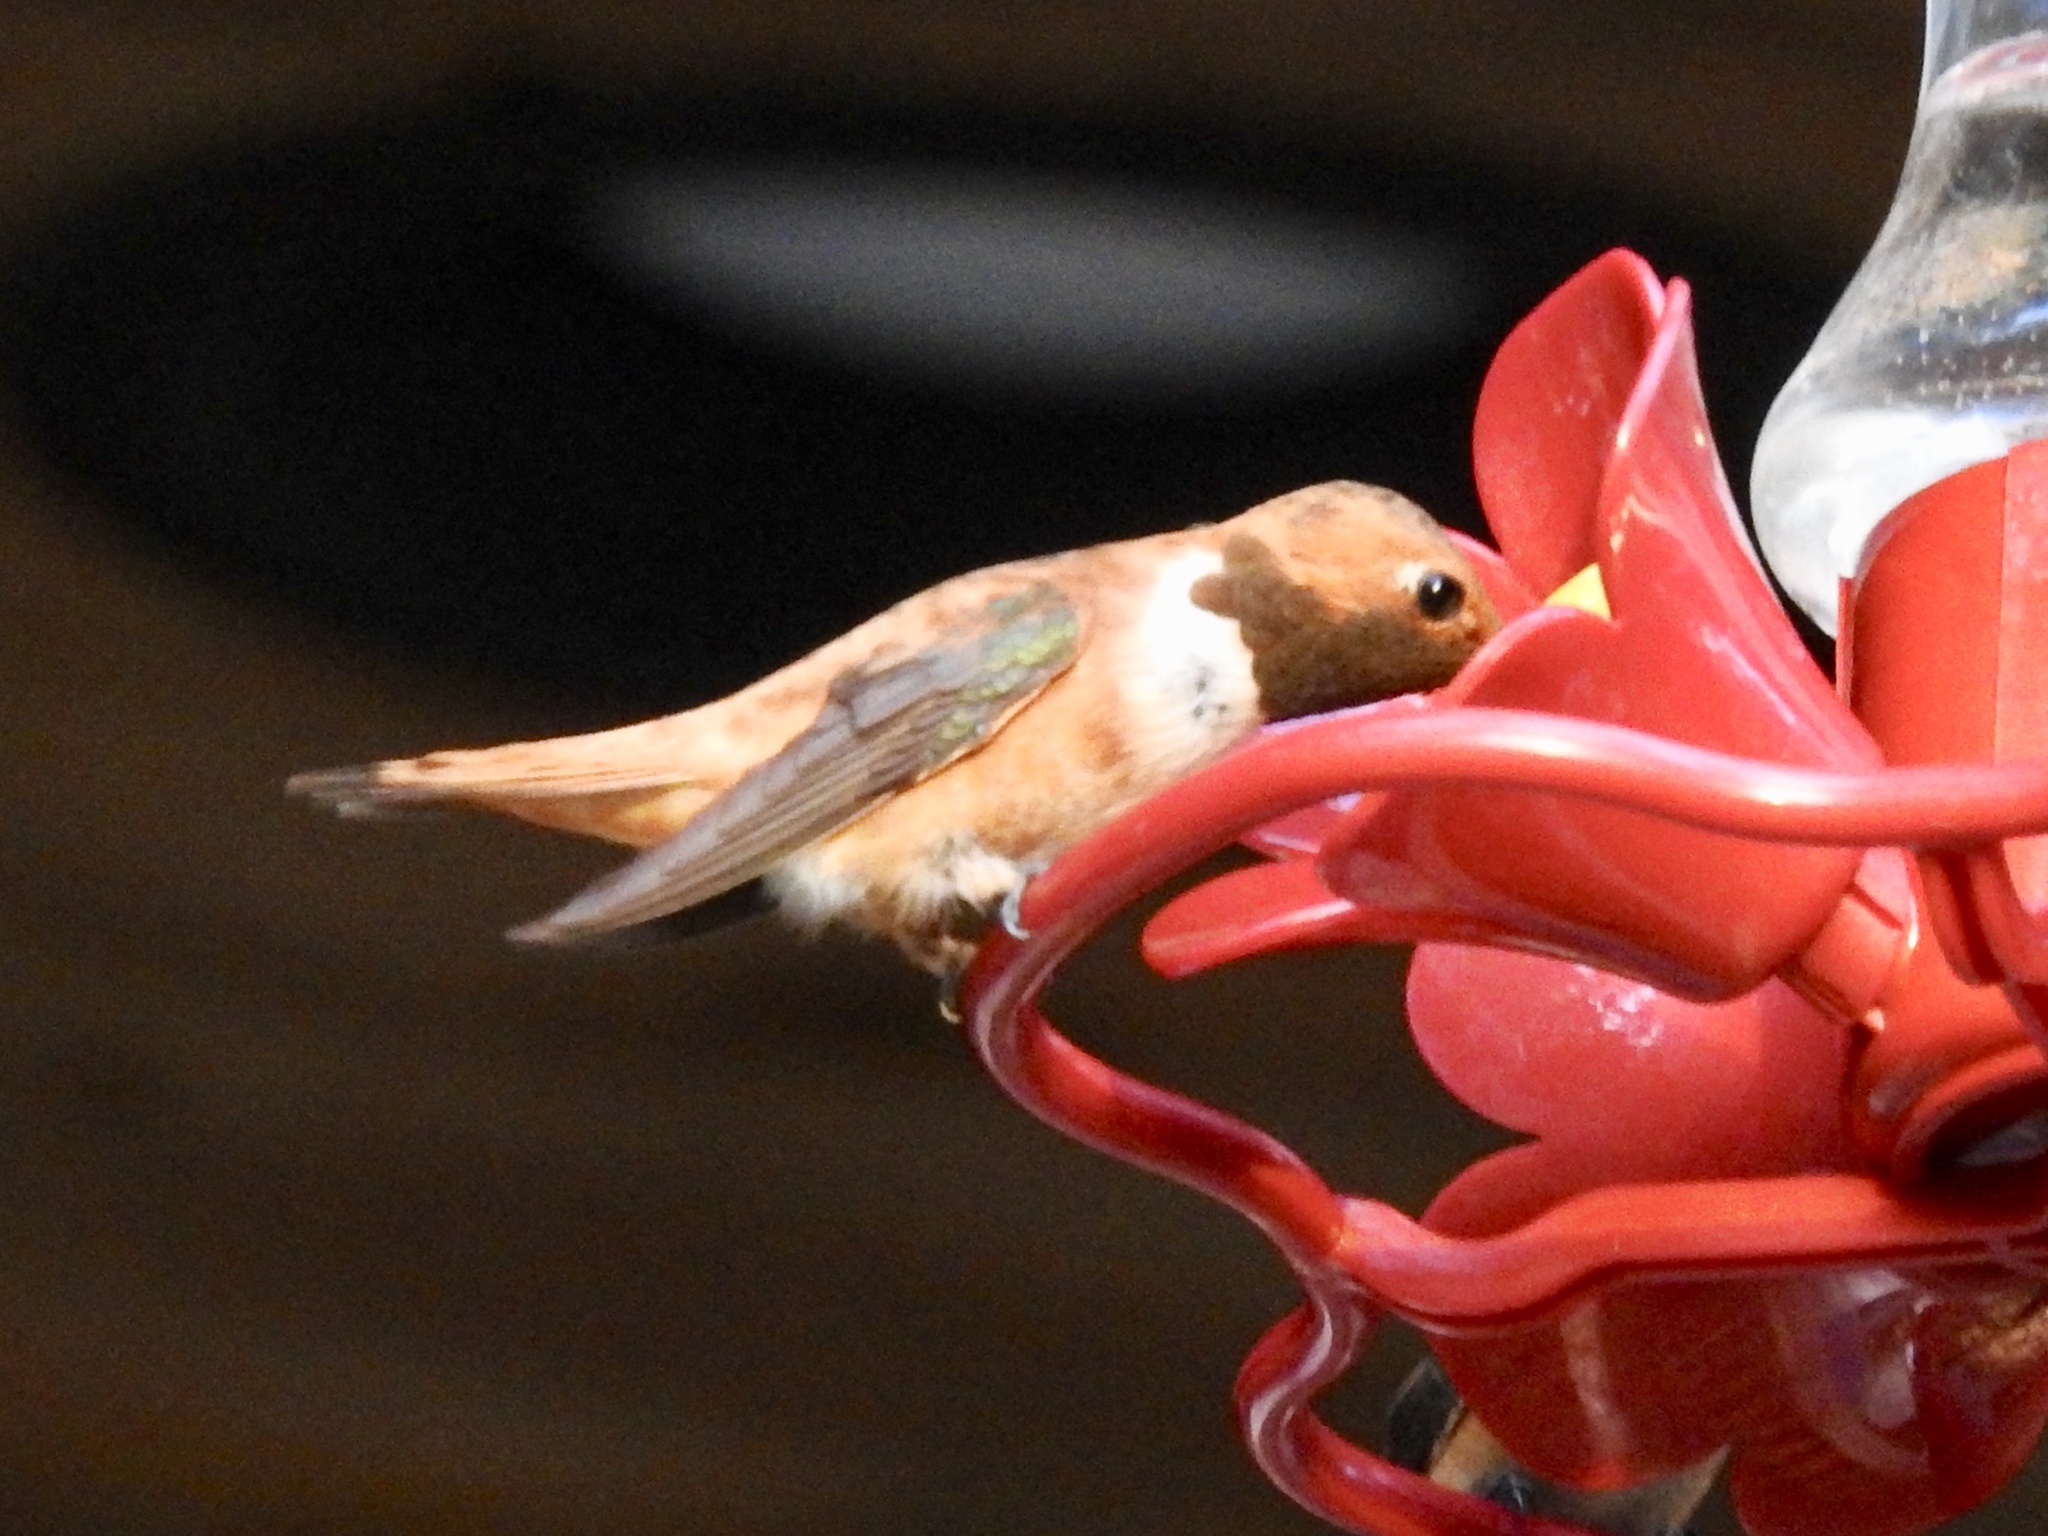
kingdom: Animalia
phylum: Chordata
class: Aves
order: Apodiformes
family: Trochilidae
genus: Selasphorus
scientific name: Selasphorus rufus
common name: Rufous hummingbird
